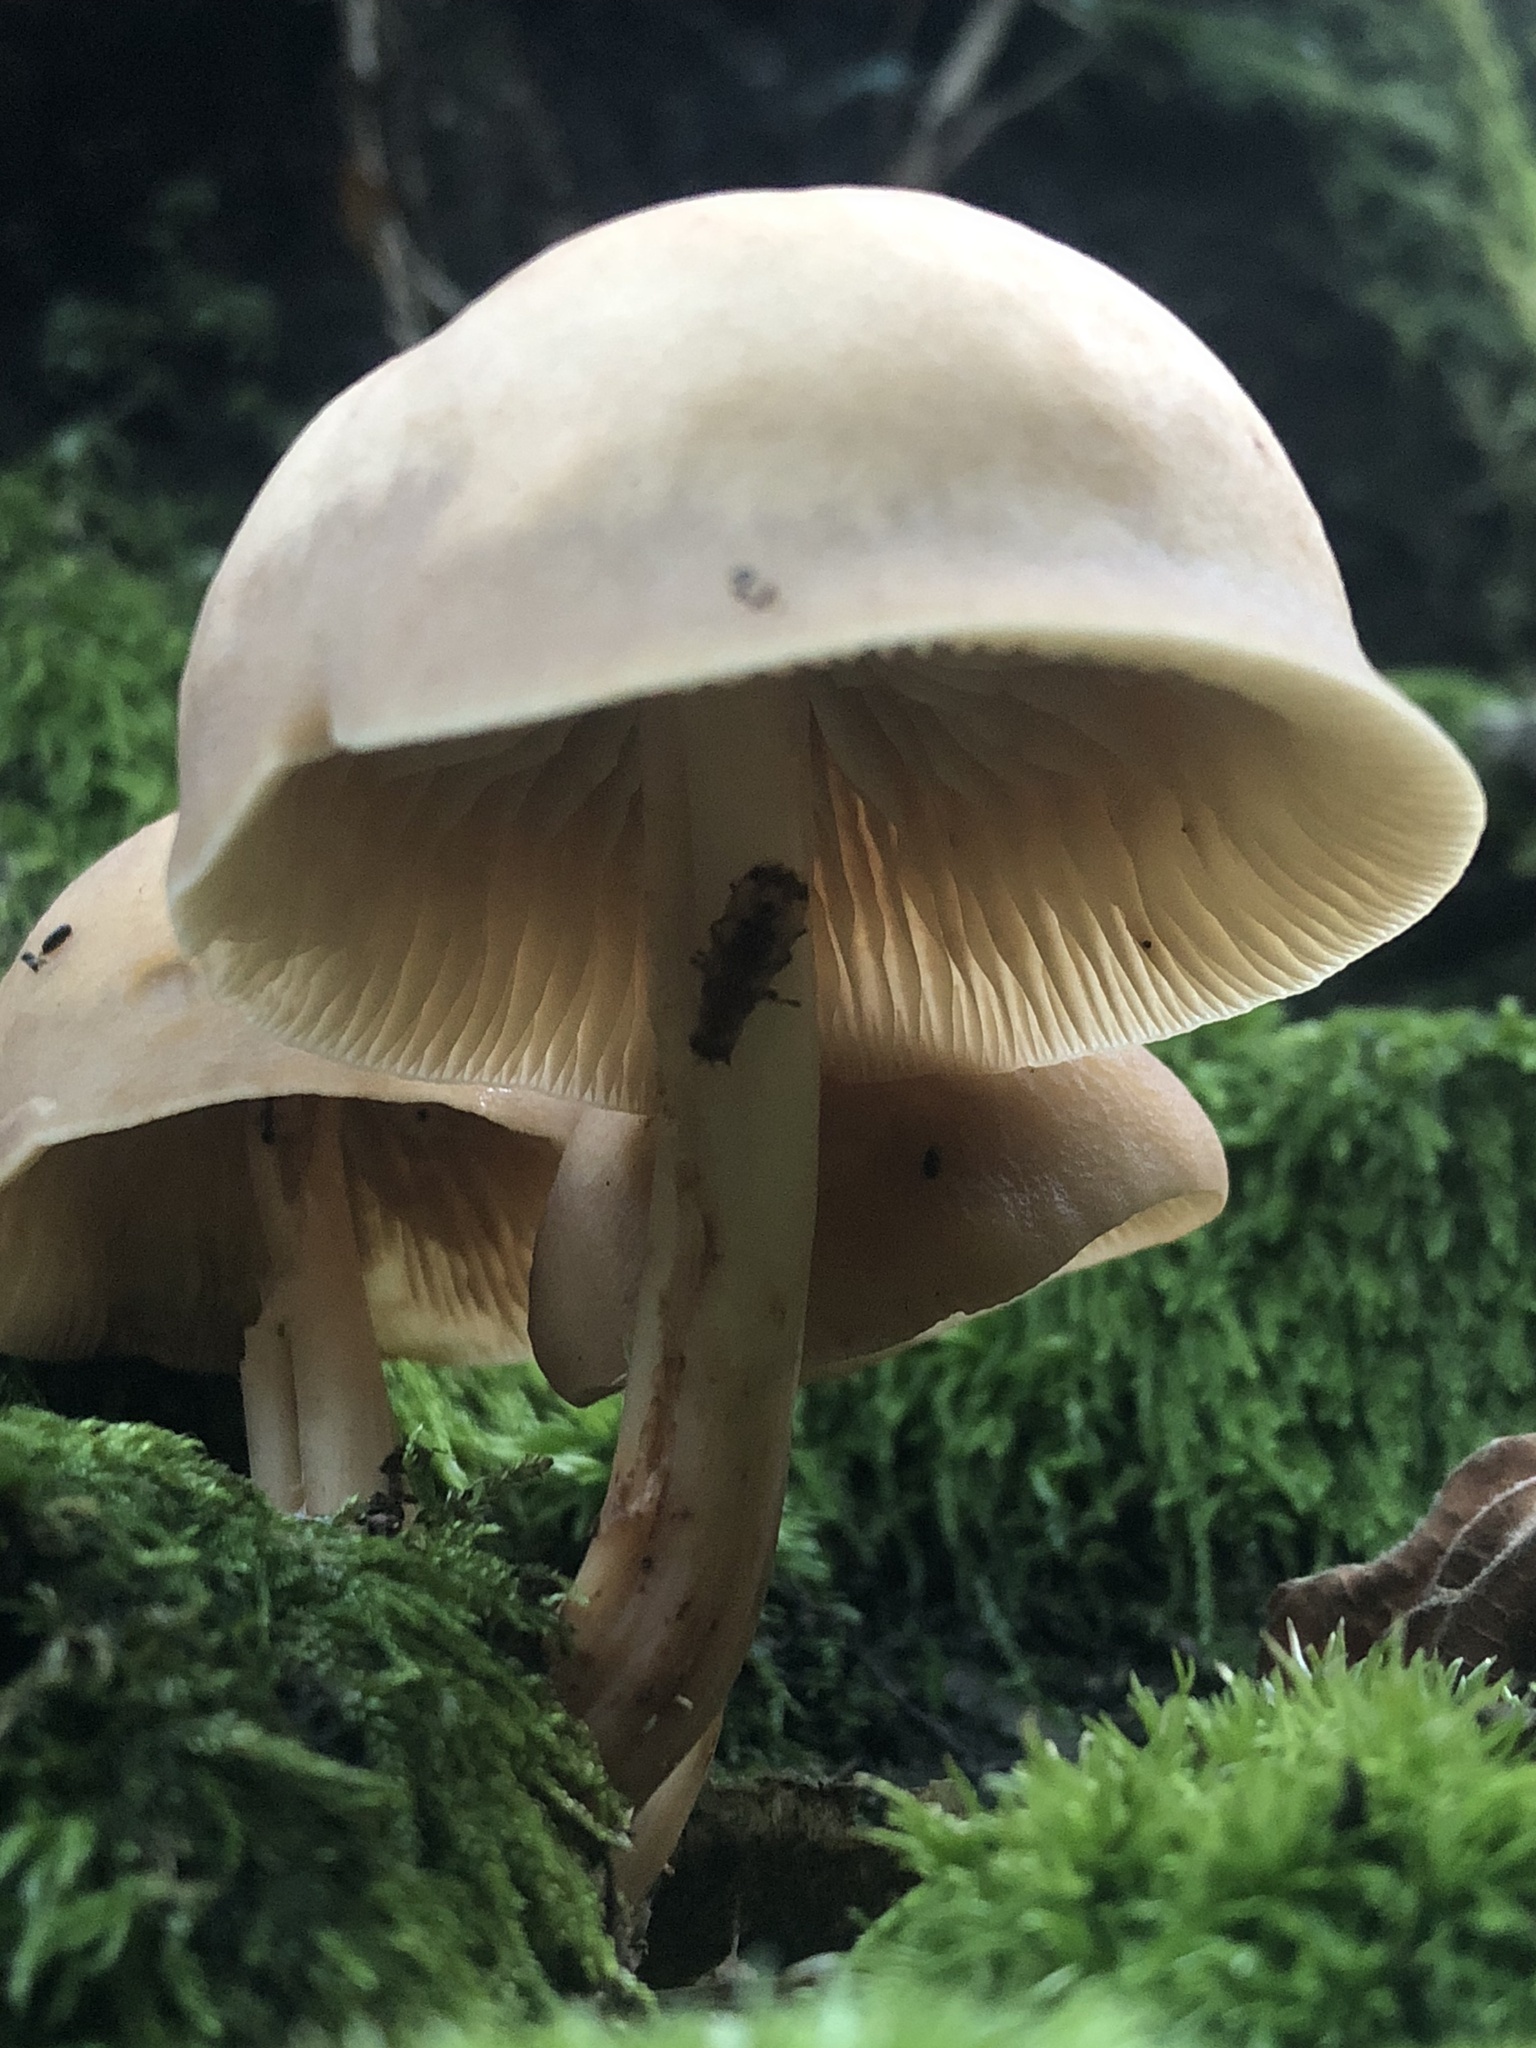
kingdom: Fungi
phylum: Basidiomycota
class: Agaricomycetes
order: Agaricales
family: Omphalotaceae
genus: Gymnopus
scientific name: Gymnopus fusipes
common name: Spindle shank
